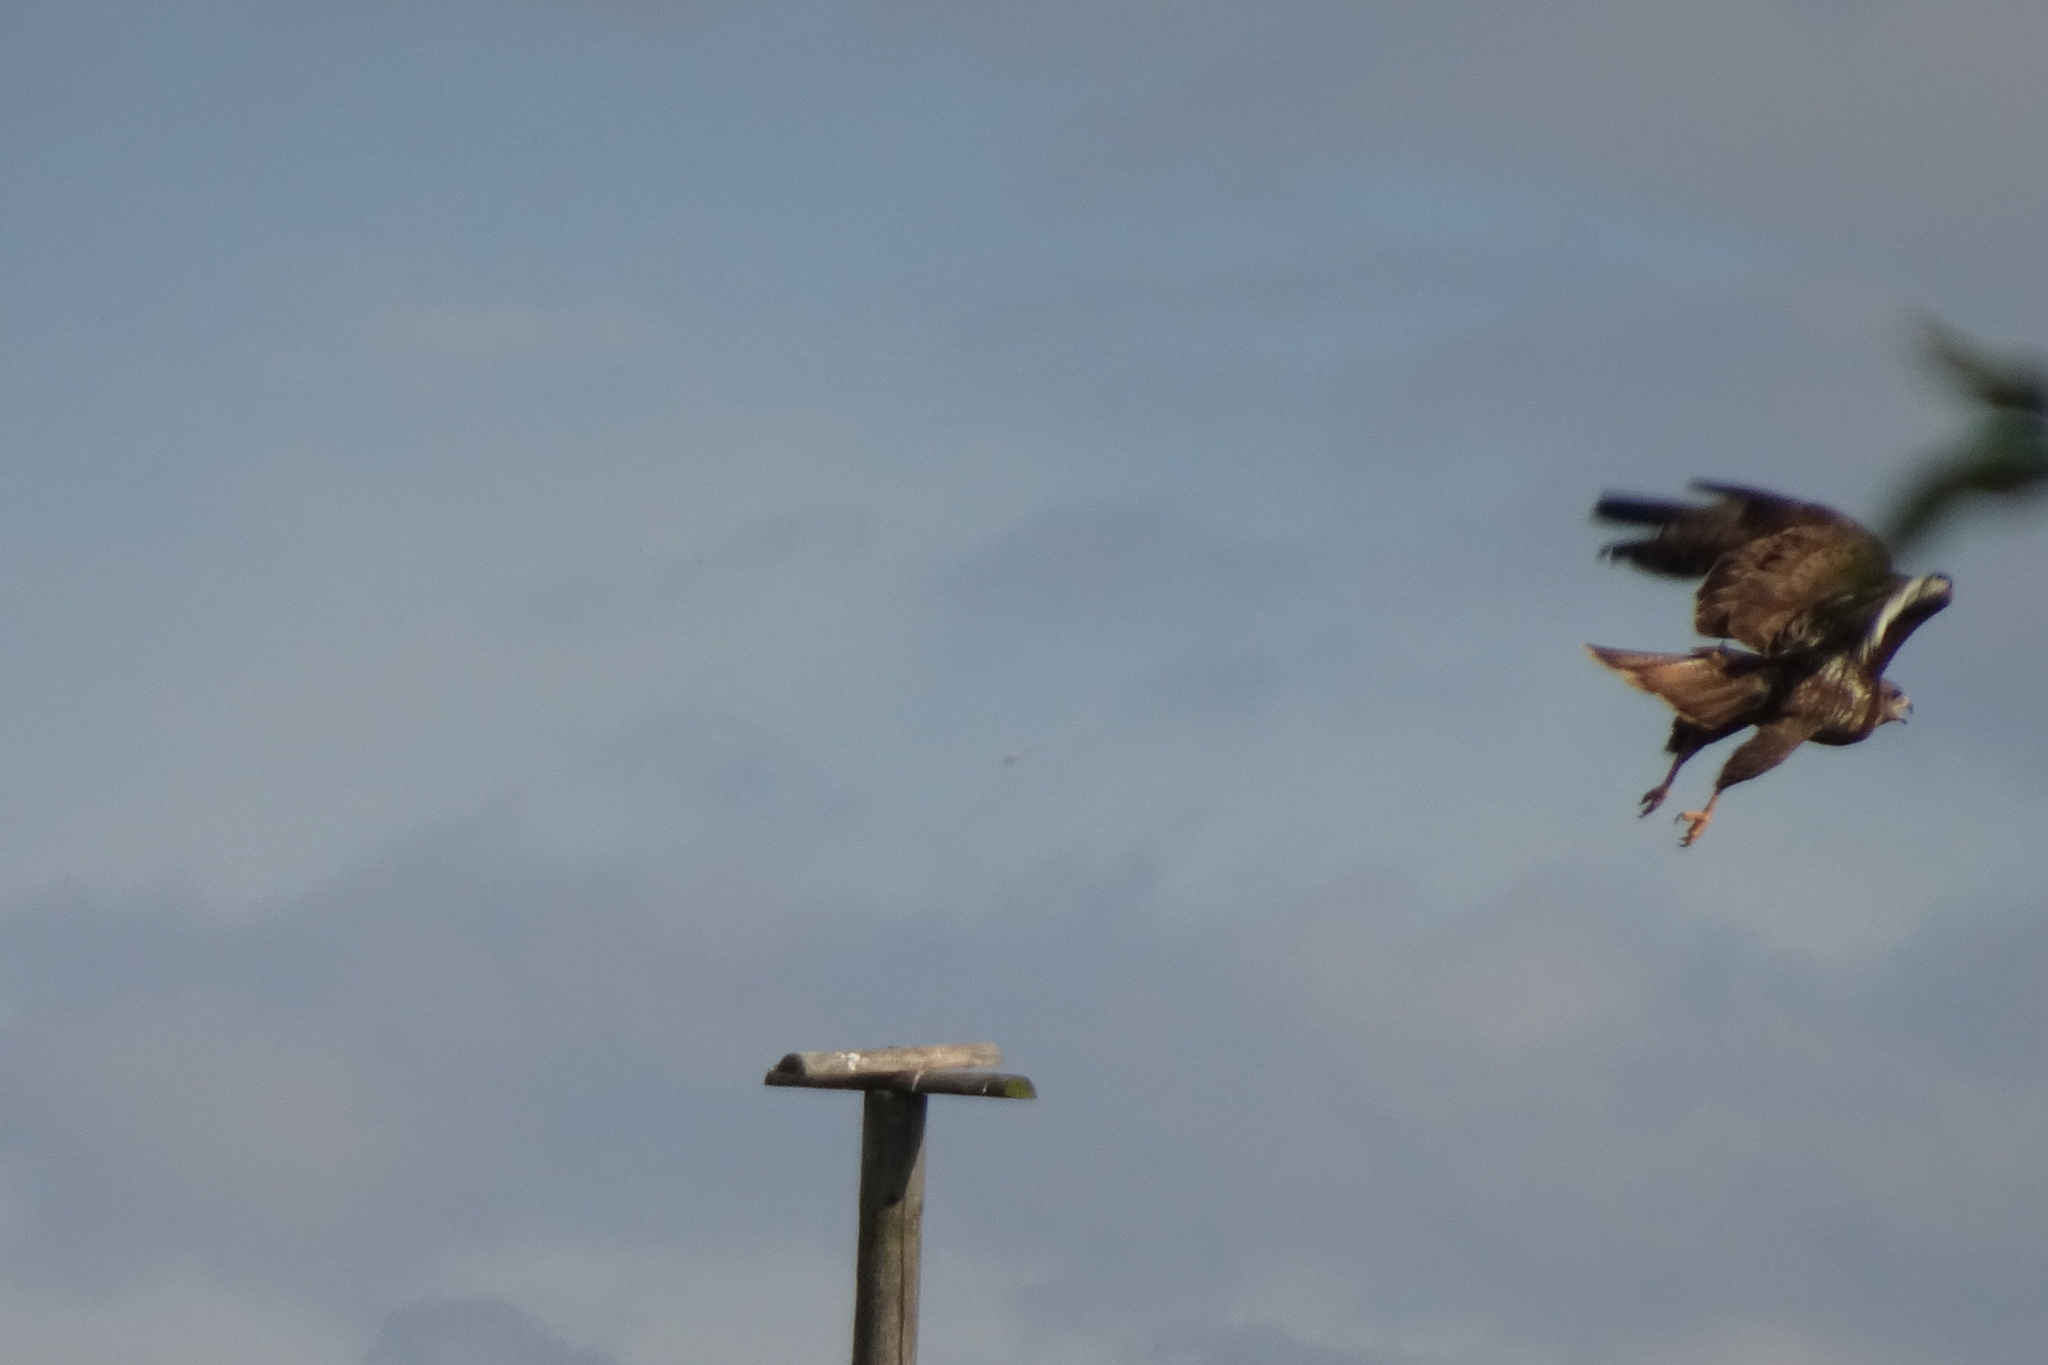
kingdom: Animalia
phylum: Chordata
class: Aves
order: Accipitriformes
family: Accipitridae
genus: Buteo
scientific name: Buteo buteo
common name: Common buzzard
